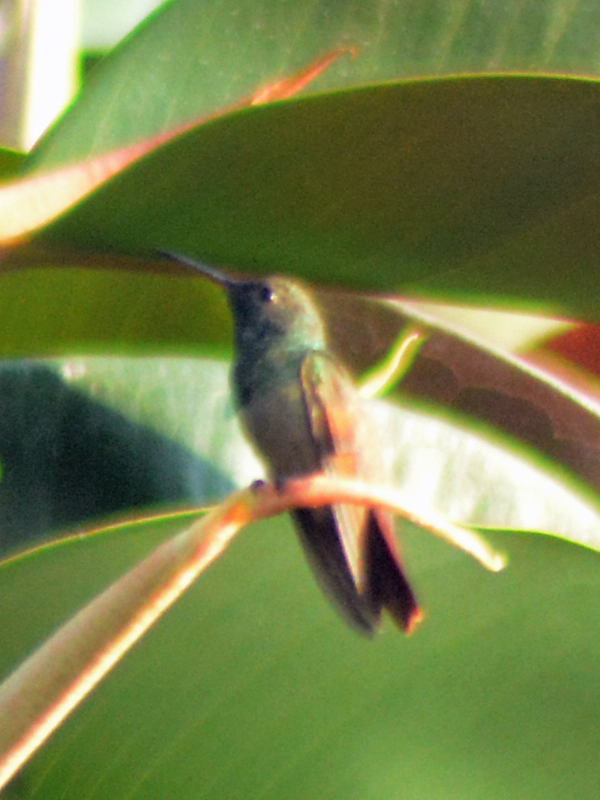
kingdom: Animalia
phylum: Chordata
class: Aves
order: Apodiformes
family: Trochilidae
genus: Saucerottia
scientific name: Saucerottia beryllina
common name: Berylline hummingbird
